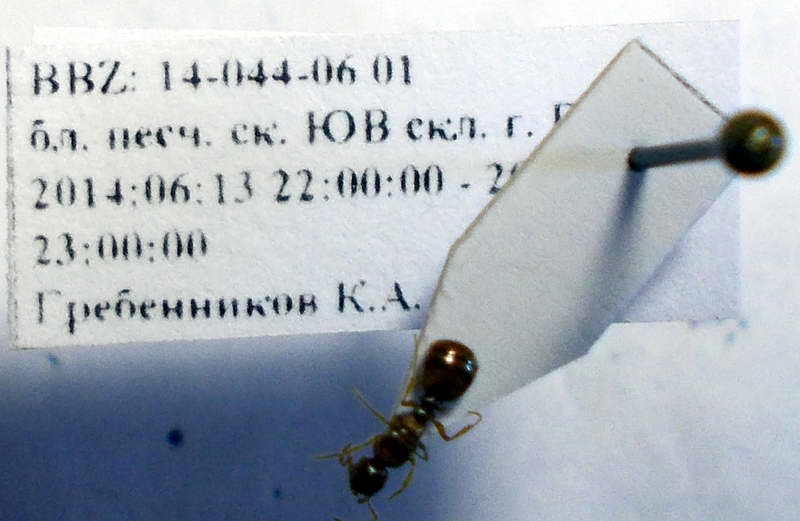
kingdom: Animalia
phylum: Arthropoda
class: Insecta
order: Hymenoptera
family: Formicidae
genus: Tetramorium
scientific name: Tetramorium ferox
